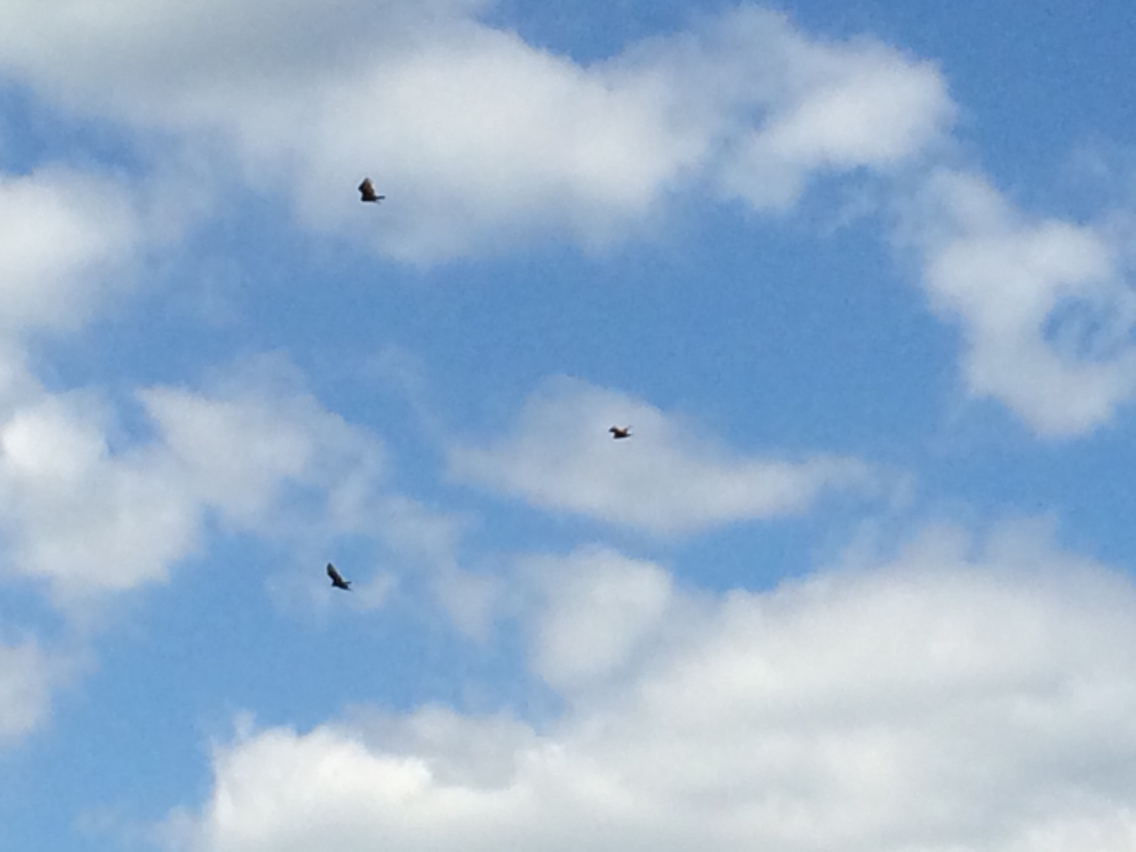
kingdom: Animalia
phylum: Chordata
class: Aves
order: Accipitriformes
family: Cathartidae
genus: Cathartes
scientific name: Cathartes aura
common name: Turkey vulture
